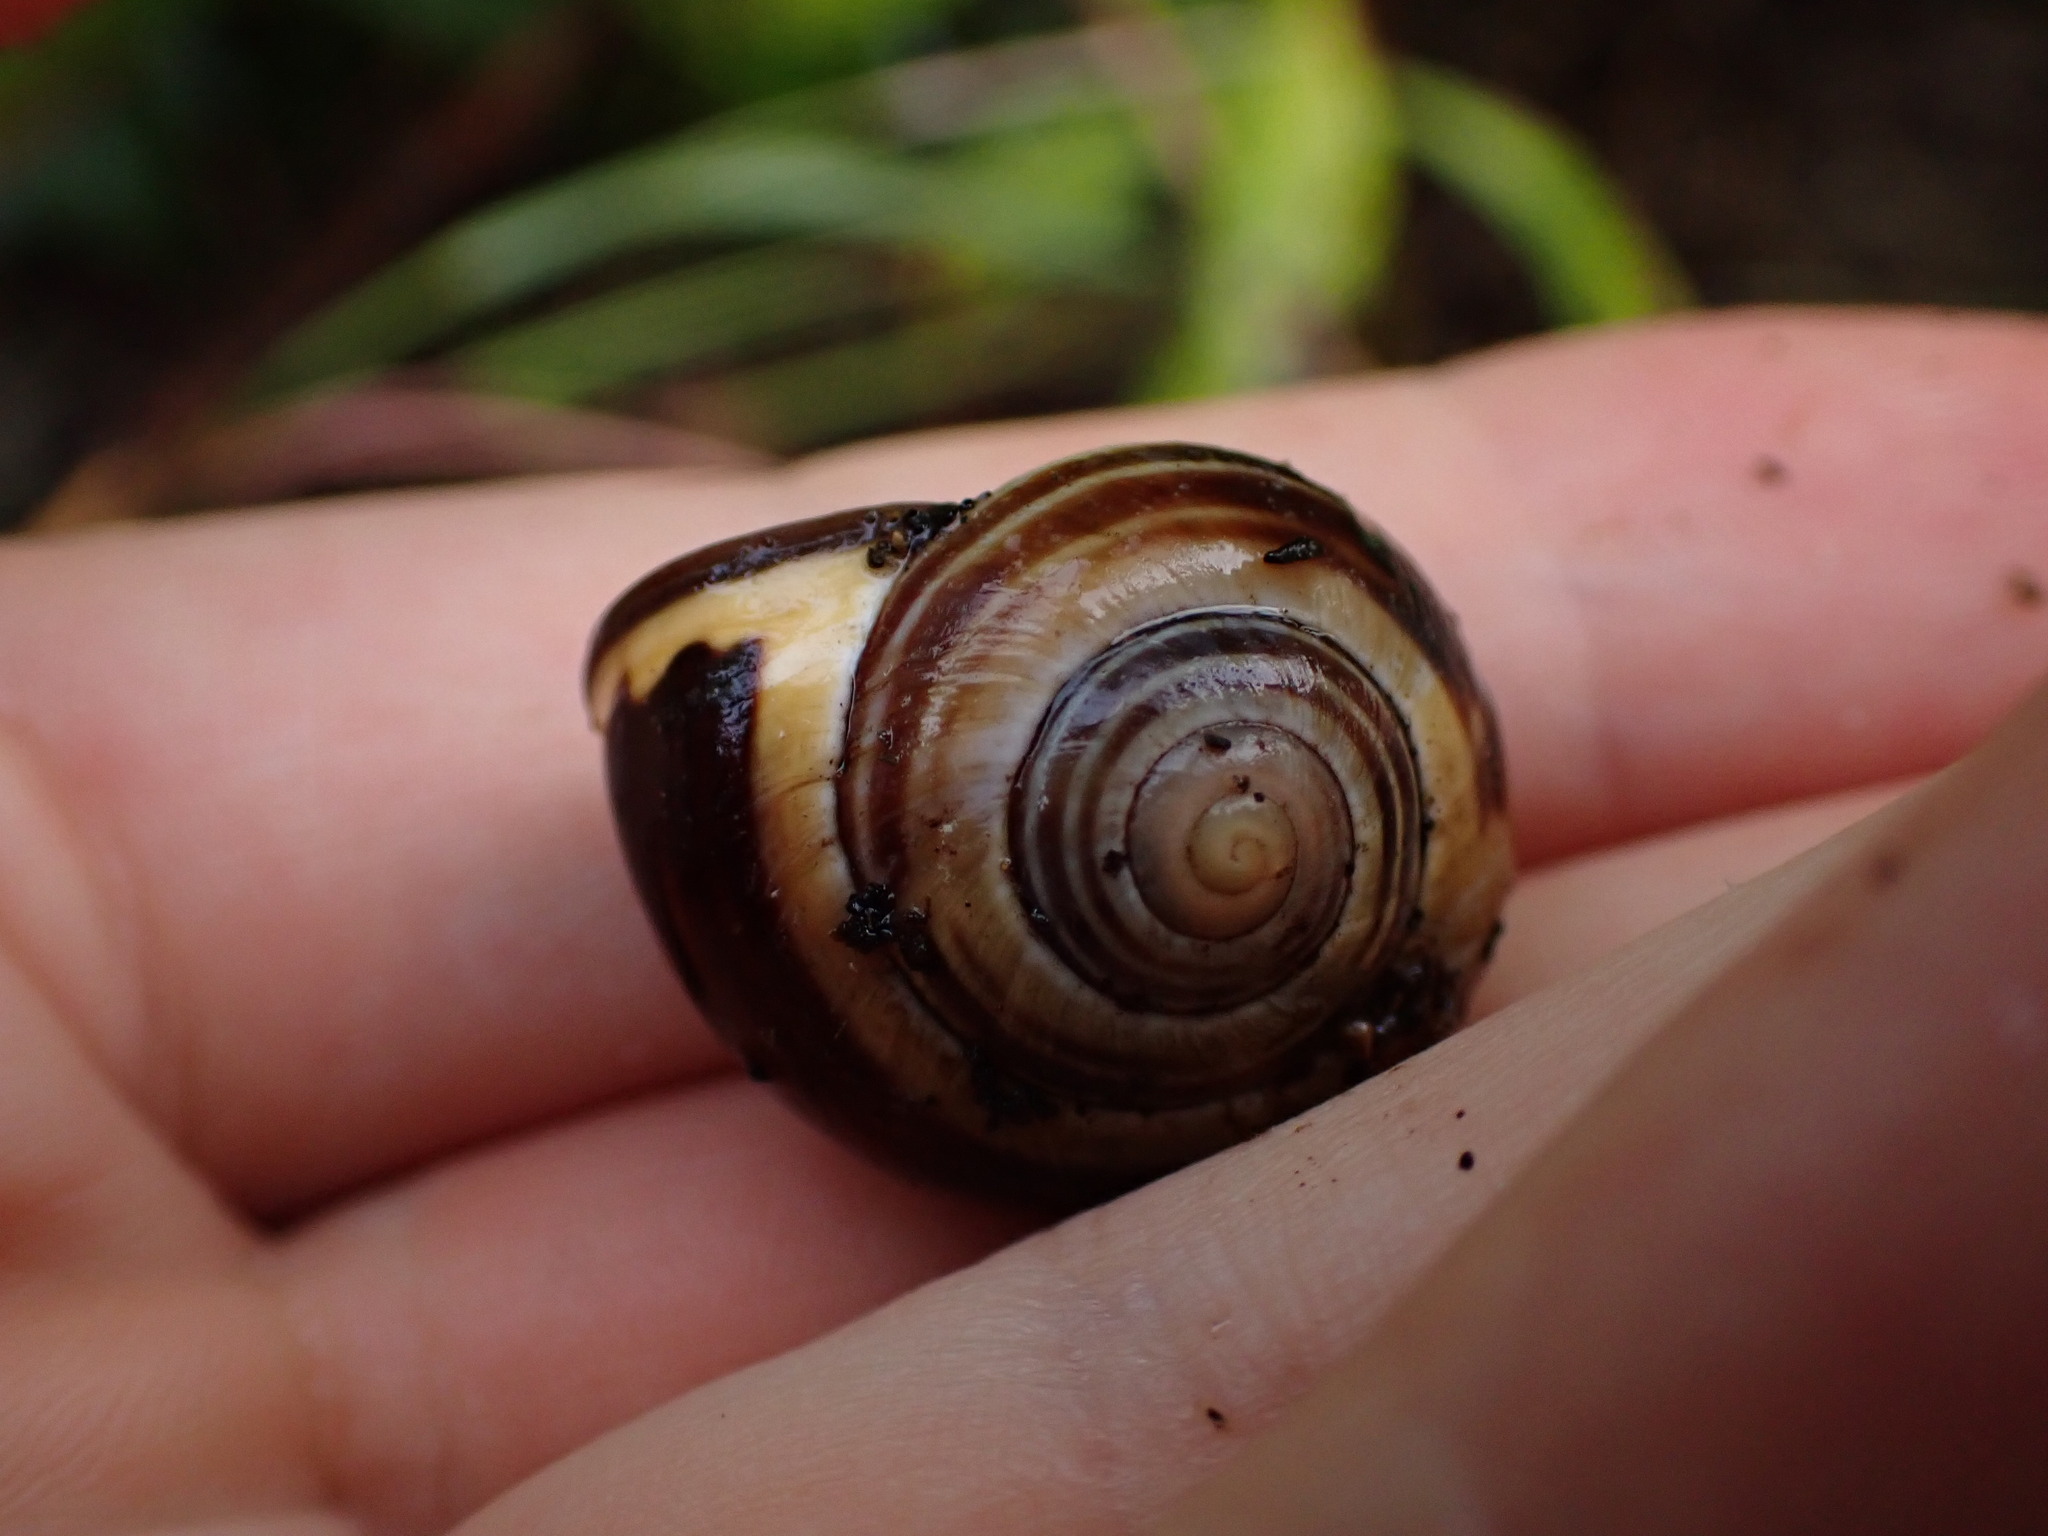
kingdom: Animalia
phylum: Mollusca
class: Gastropoda
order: Stylommatophora
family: Helicidae
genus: Cepaea
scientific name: Cepaea nemoralis
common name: Grovesnail
